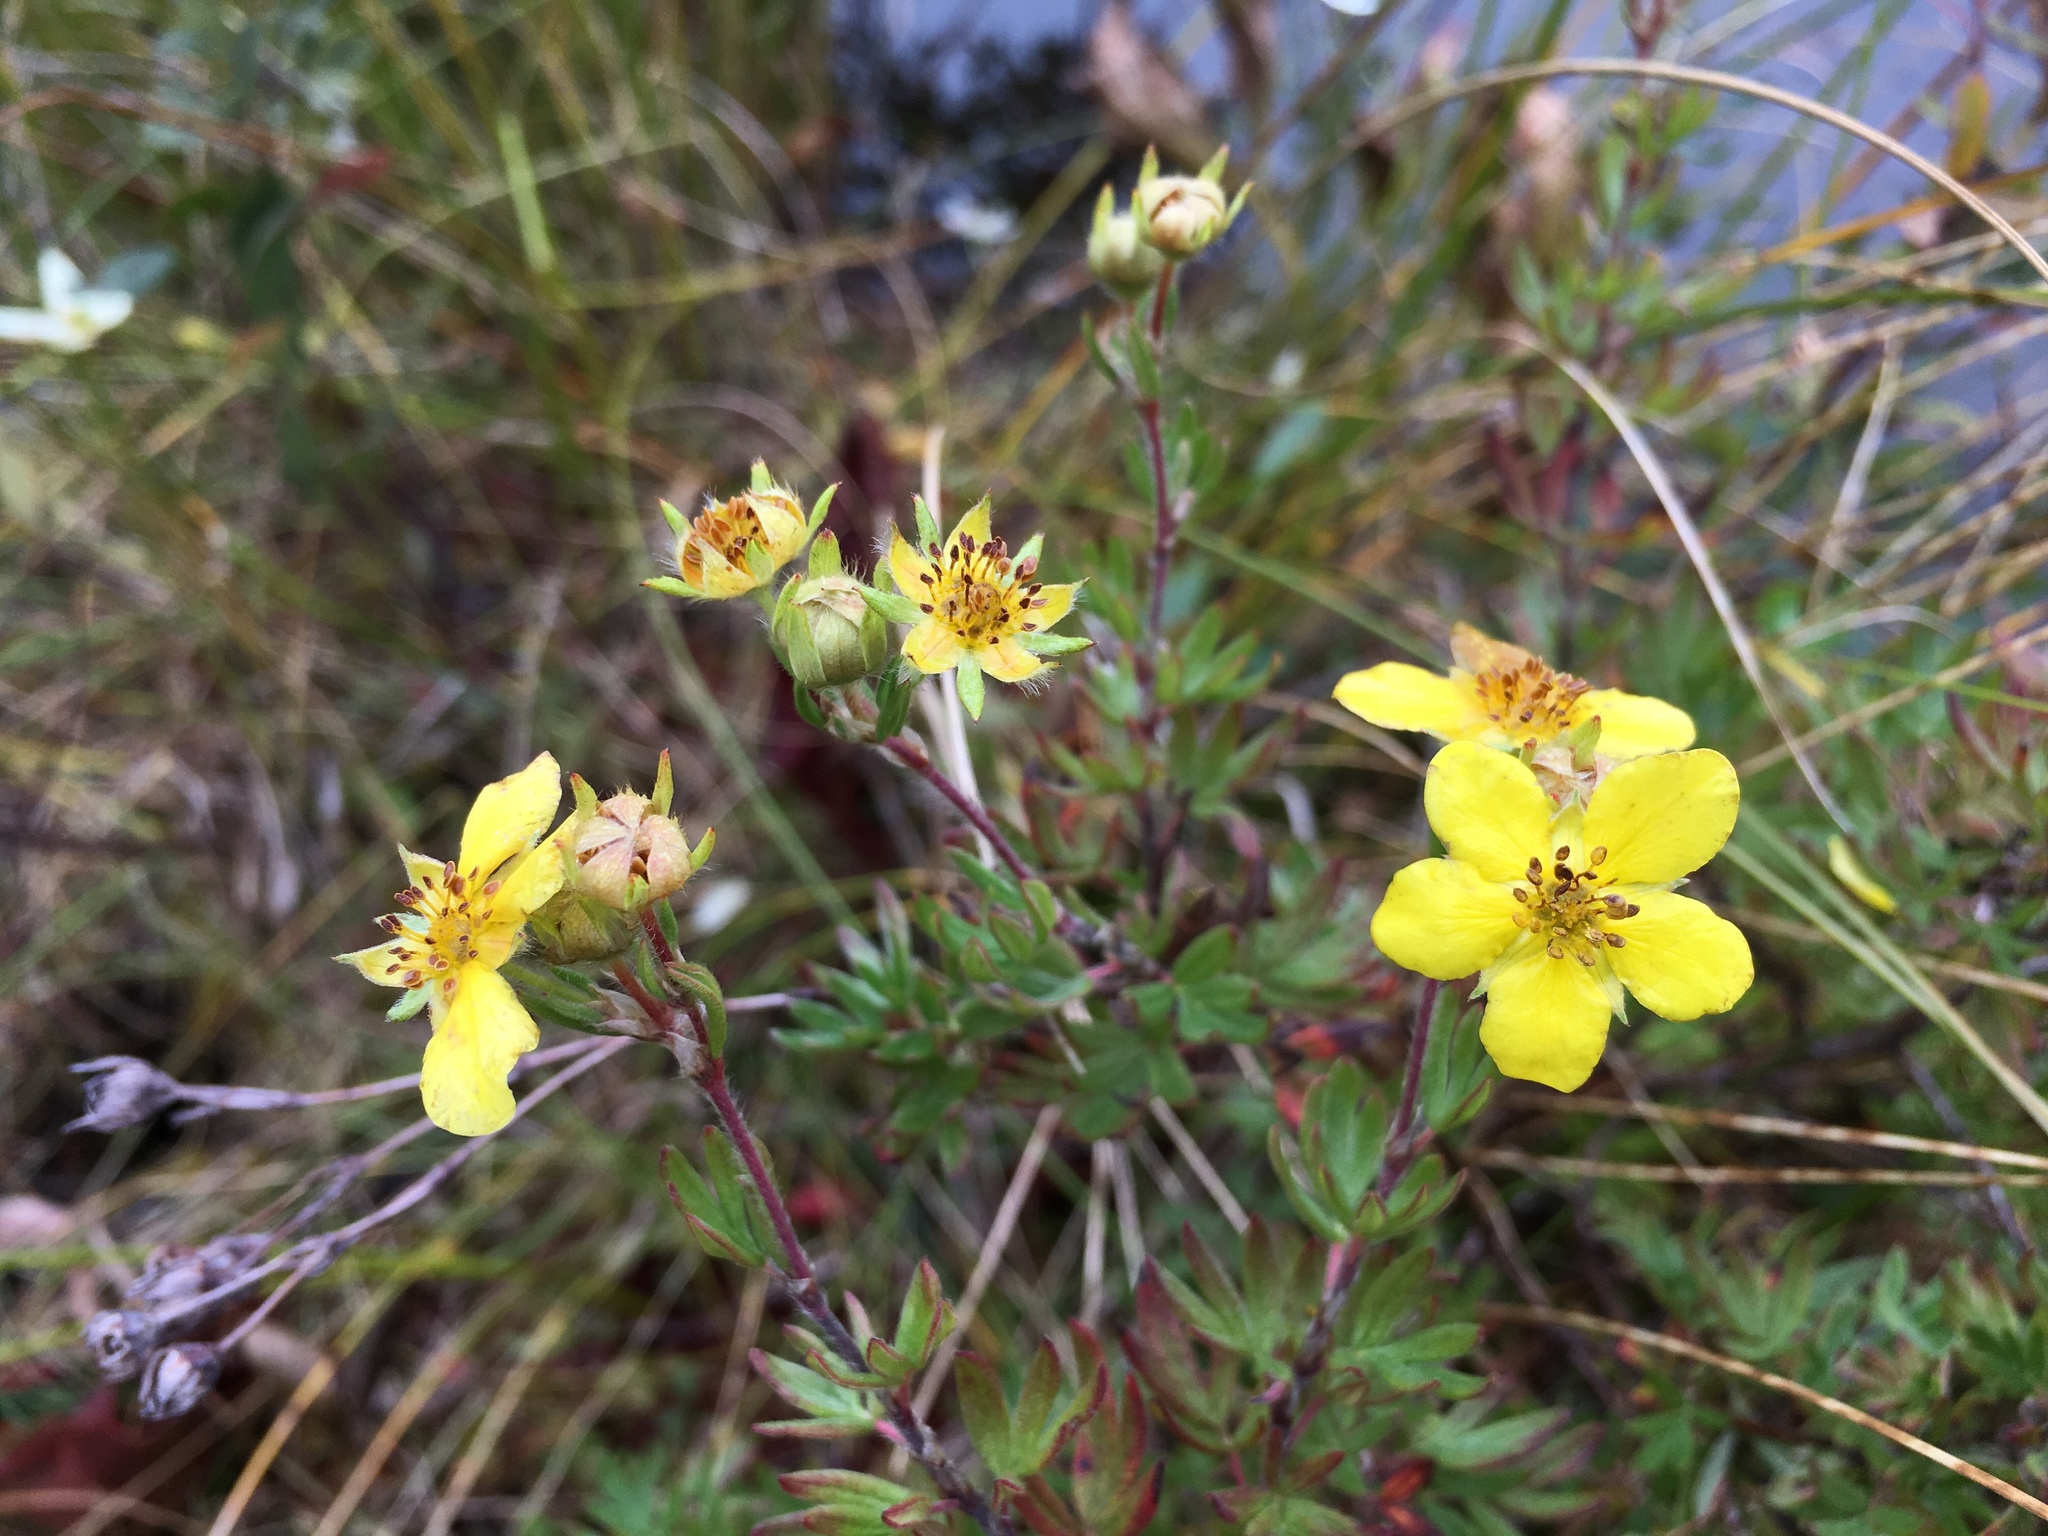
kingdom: Plantae
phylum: Tracheophyta
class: Magnoliopsida
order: Rosales
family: Rosaceae
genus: Dasiphora
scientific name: Dasiphora fruticosa
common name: Shrubby cinquefoil
